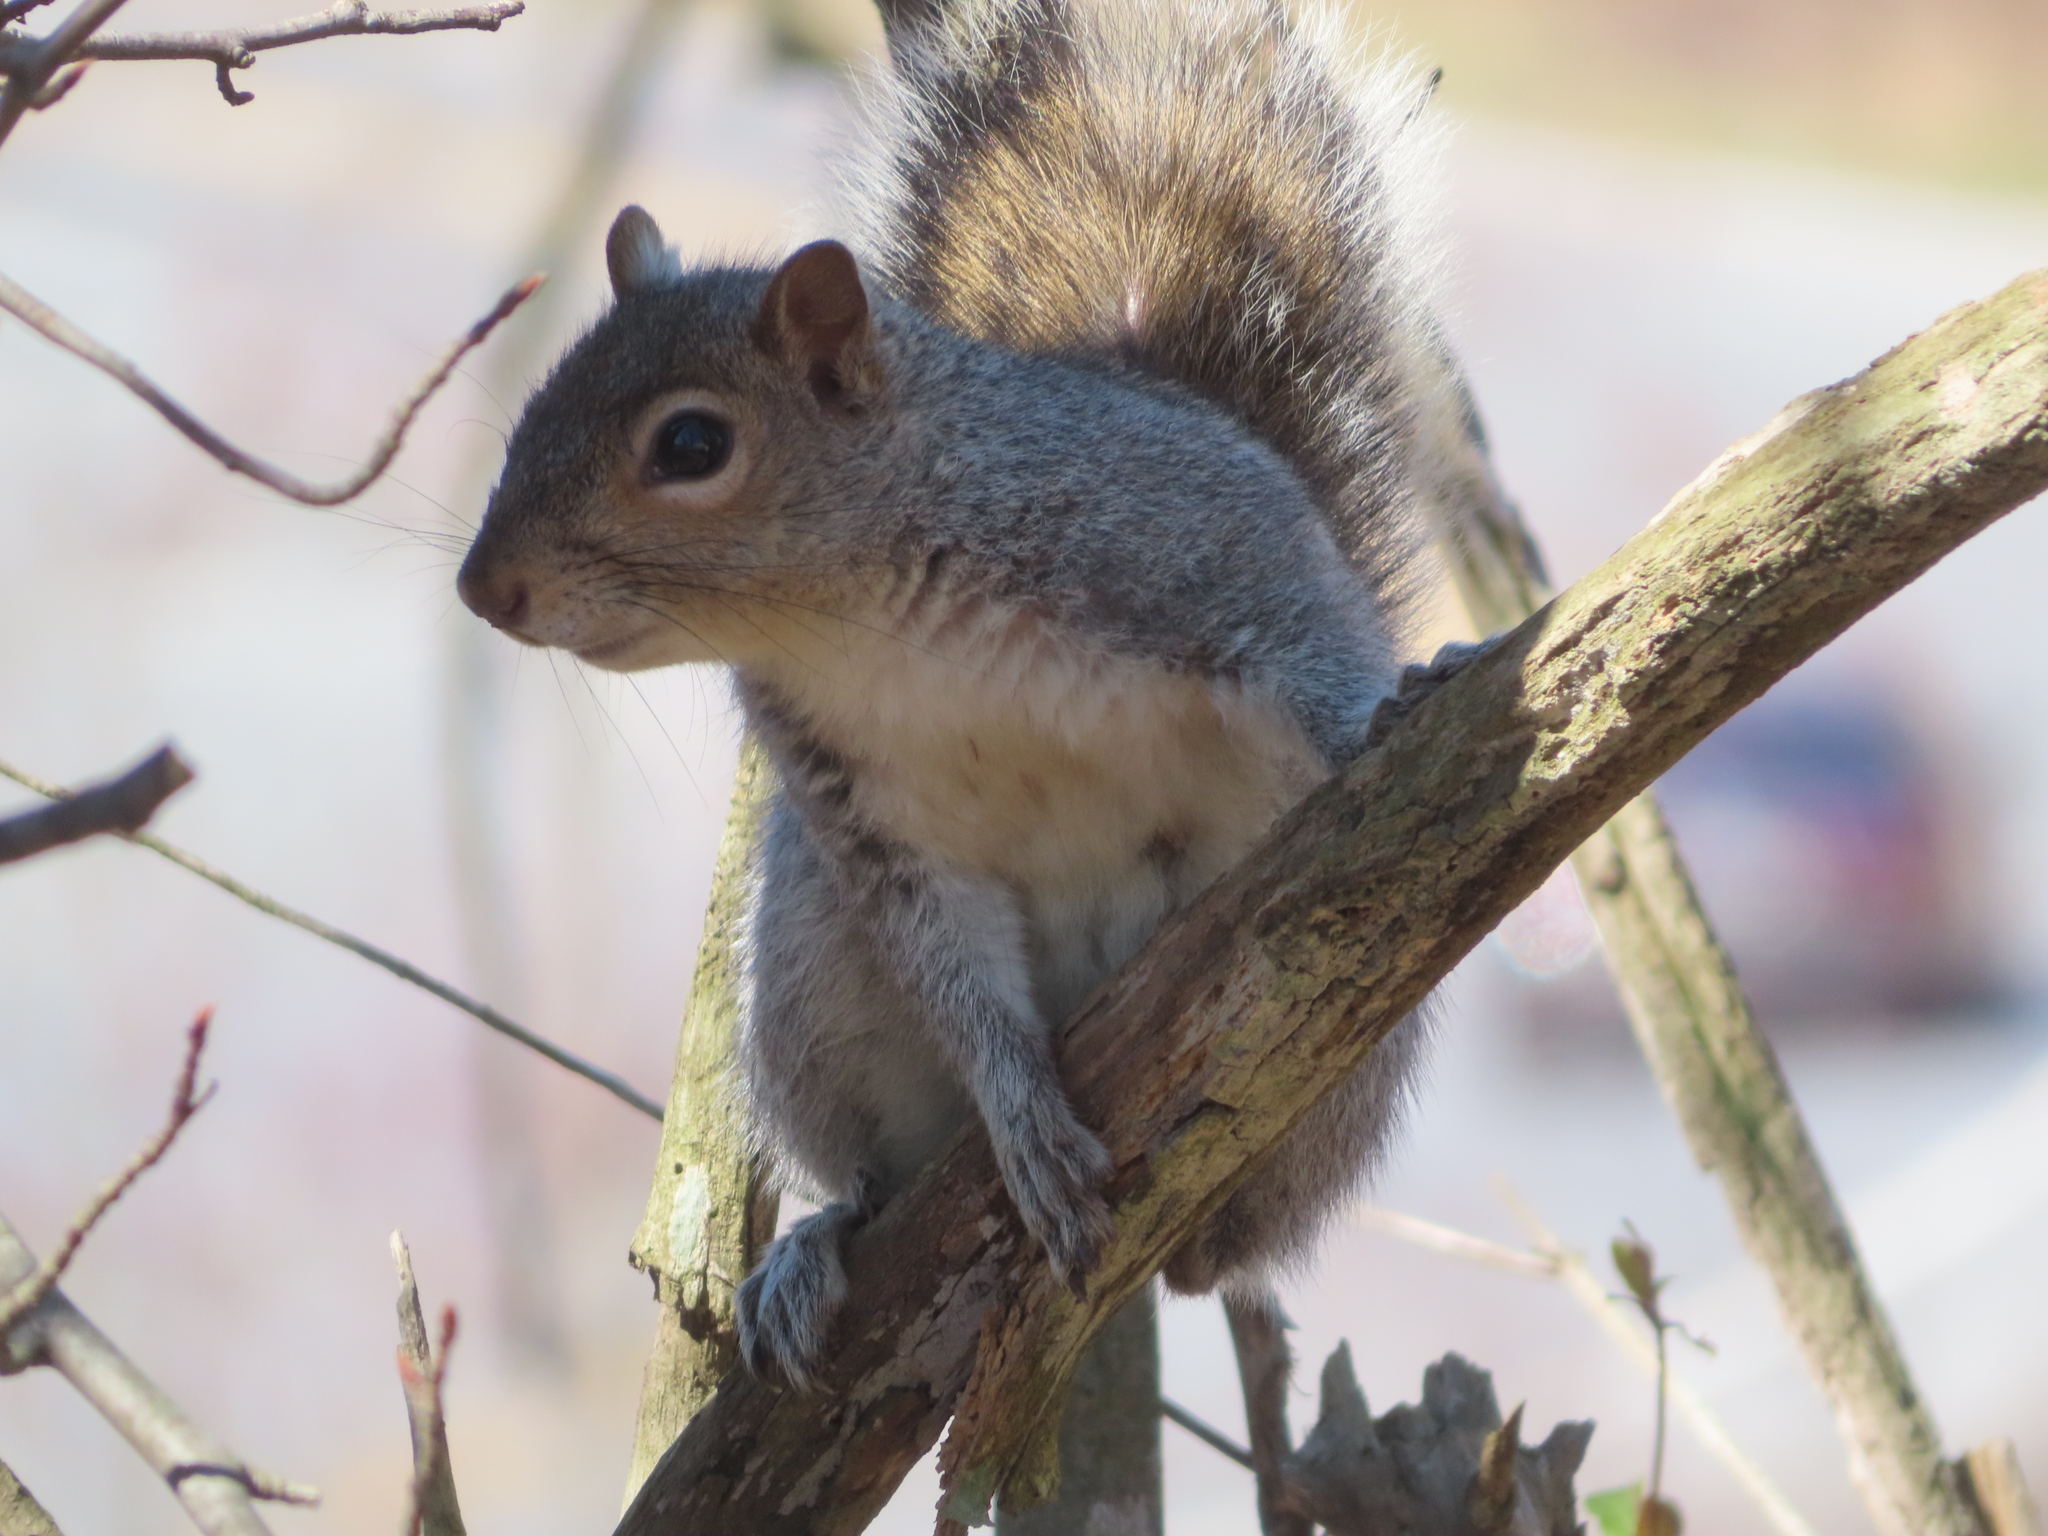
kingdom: Animalia
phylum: Chordata
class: Mammalia
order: Rodentia
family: Sciuridae
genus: Sciurus
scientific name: Sciurus carolinensis
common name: Eastern gray squirrel
